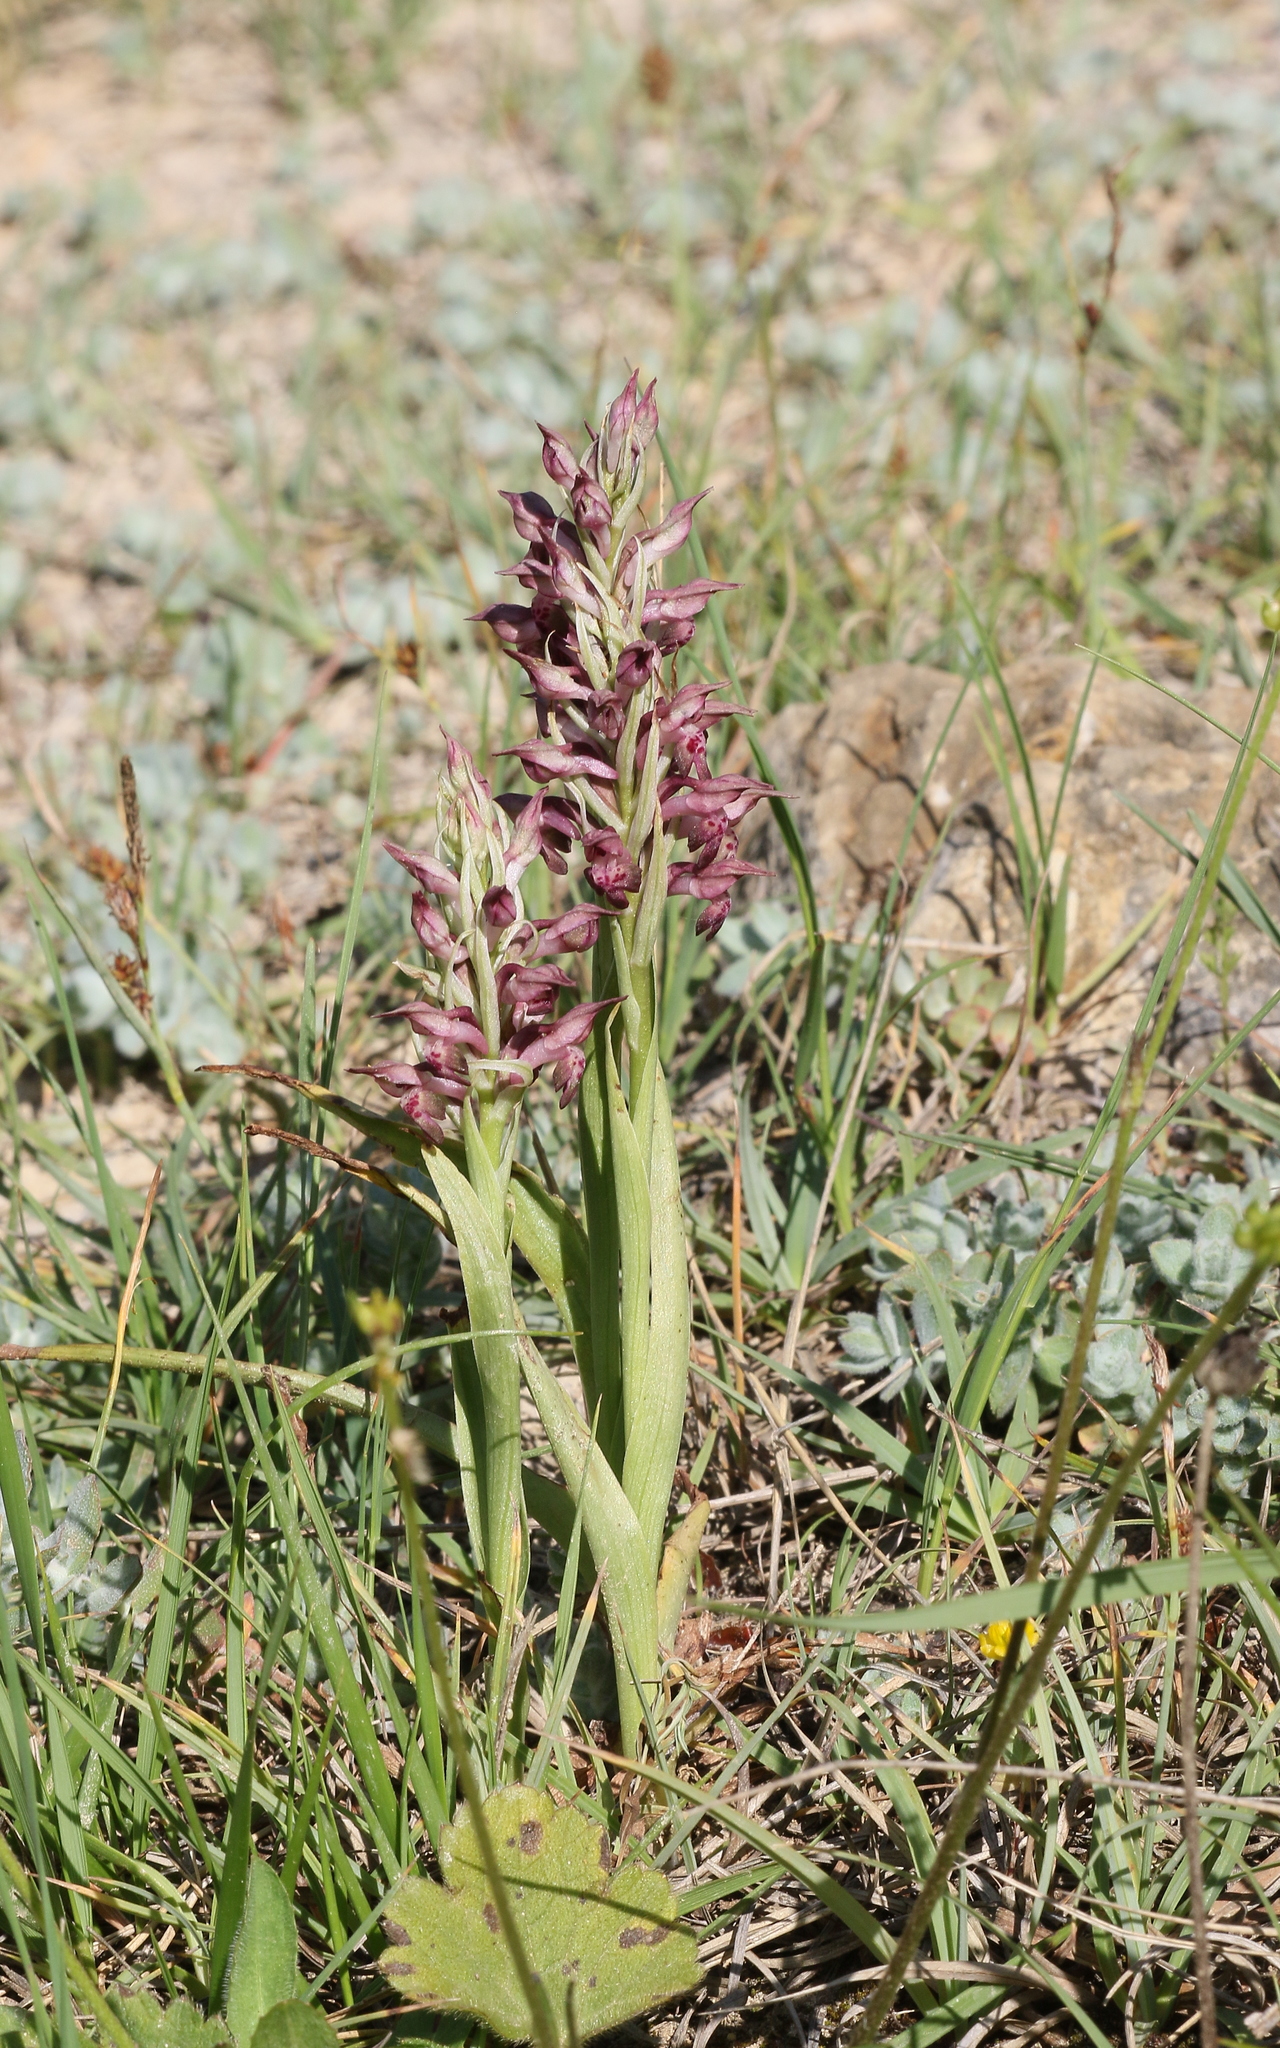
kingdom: Plantae
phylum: Tracheophyta
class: Liliopsida
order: Asparagales
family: Orchidaceae
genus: Anacamptis
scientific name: Anacamptis coriophora
